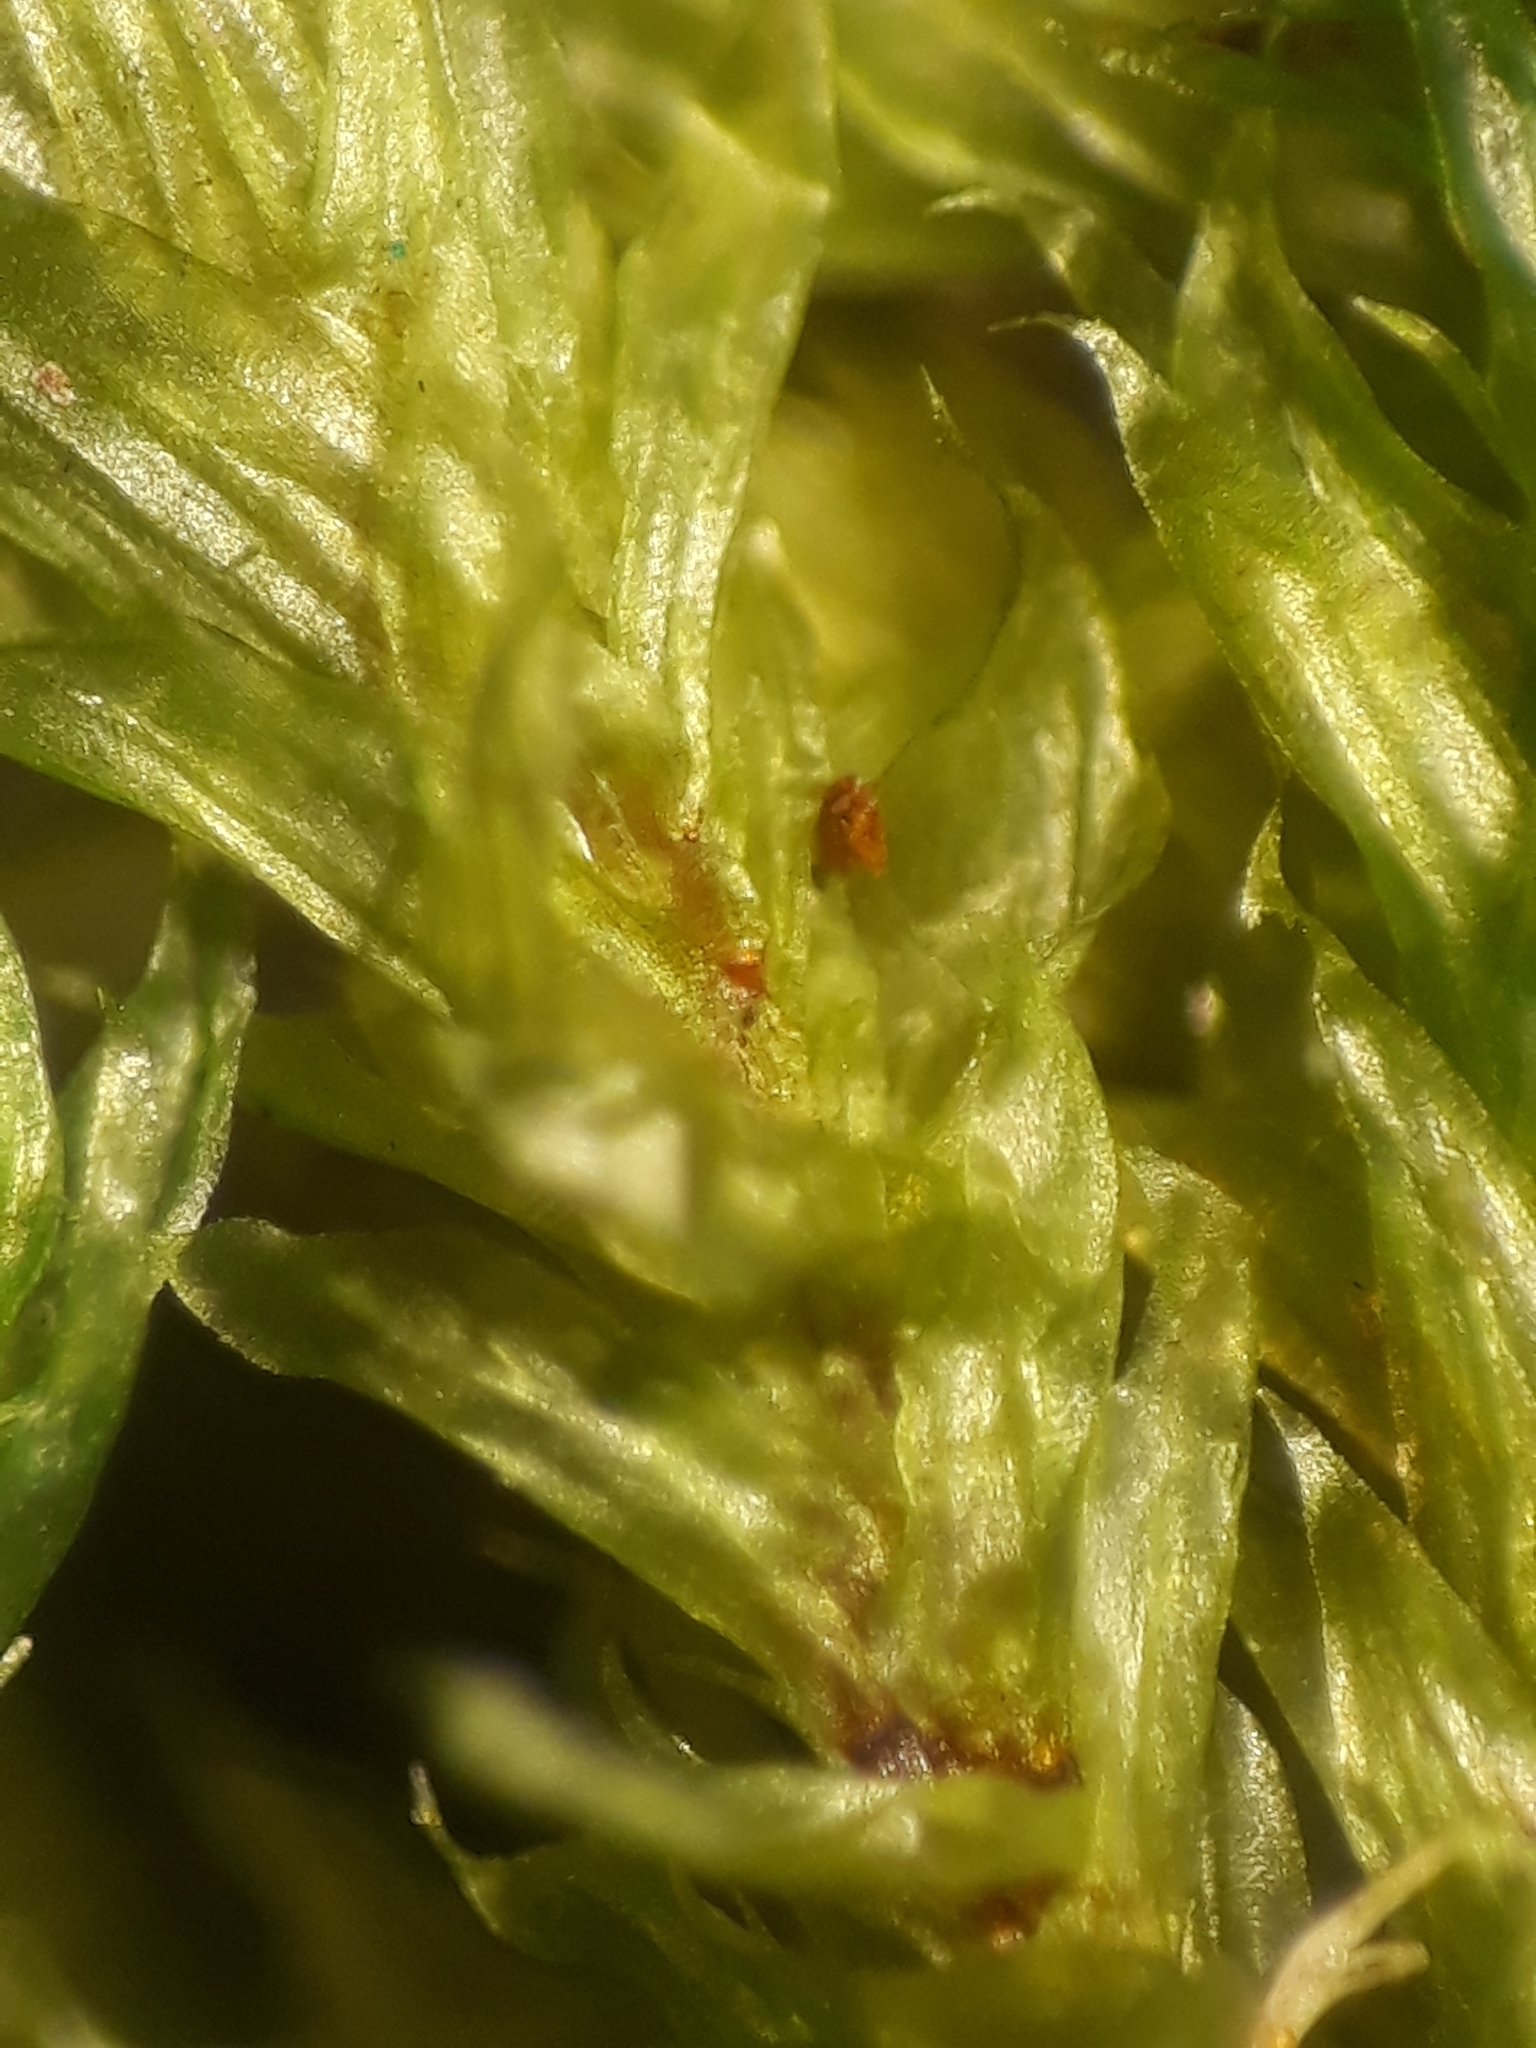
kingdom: Plantae
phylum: Bryophyta
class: Bryopsida
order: Ptychomniales
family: Ptychomniaceae
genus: Glyphothecium
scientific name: Glyphothecium sciuroides
